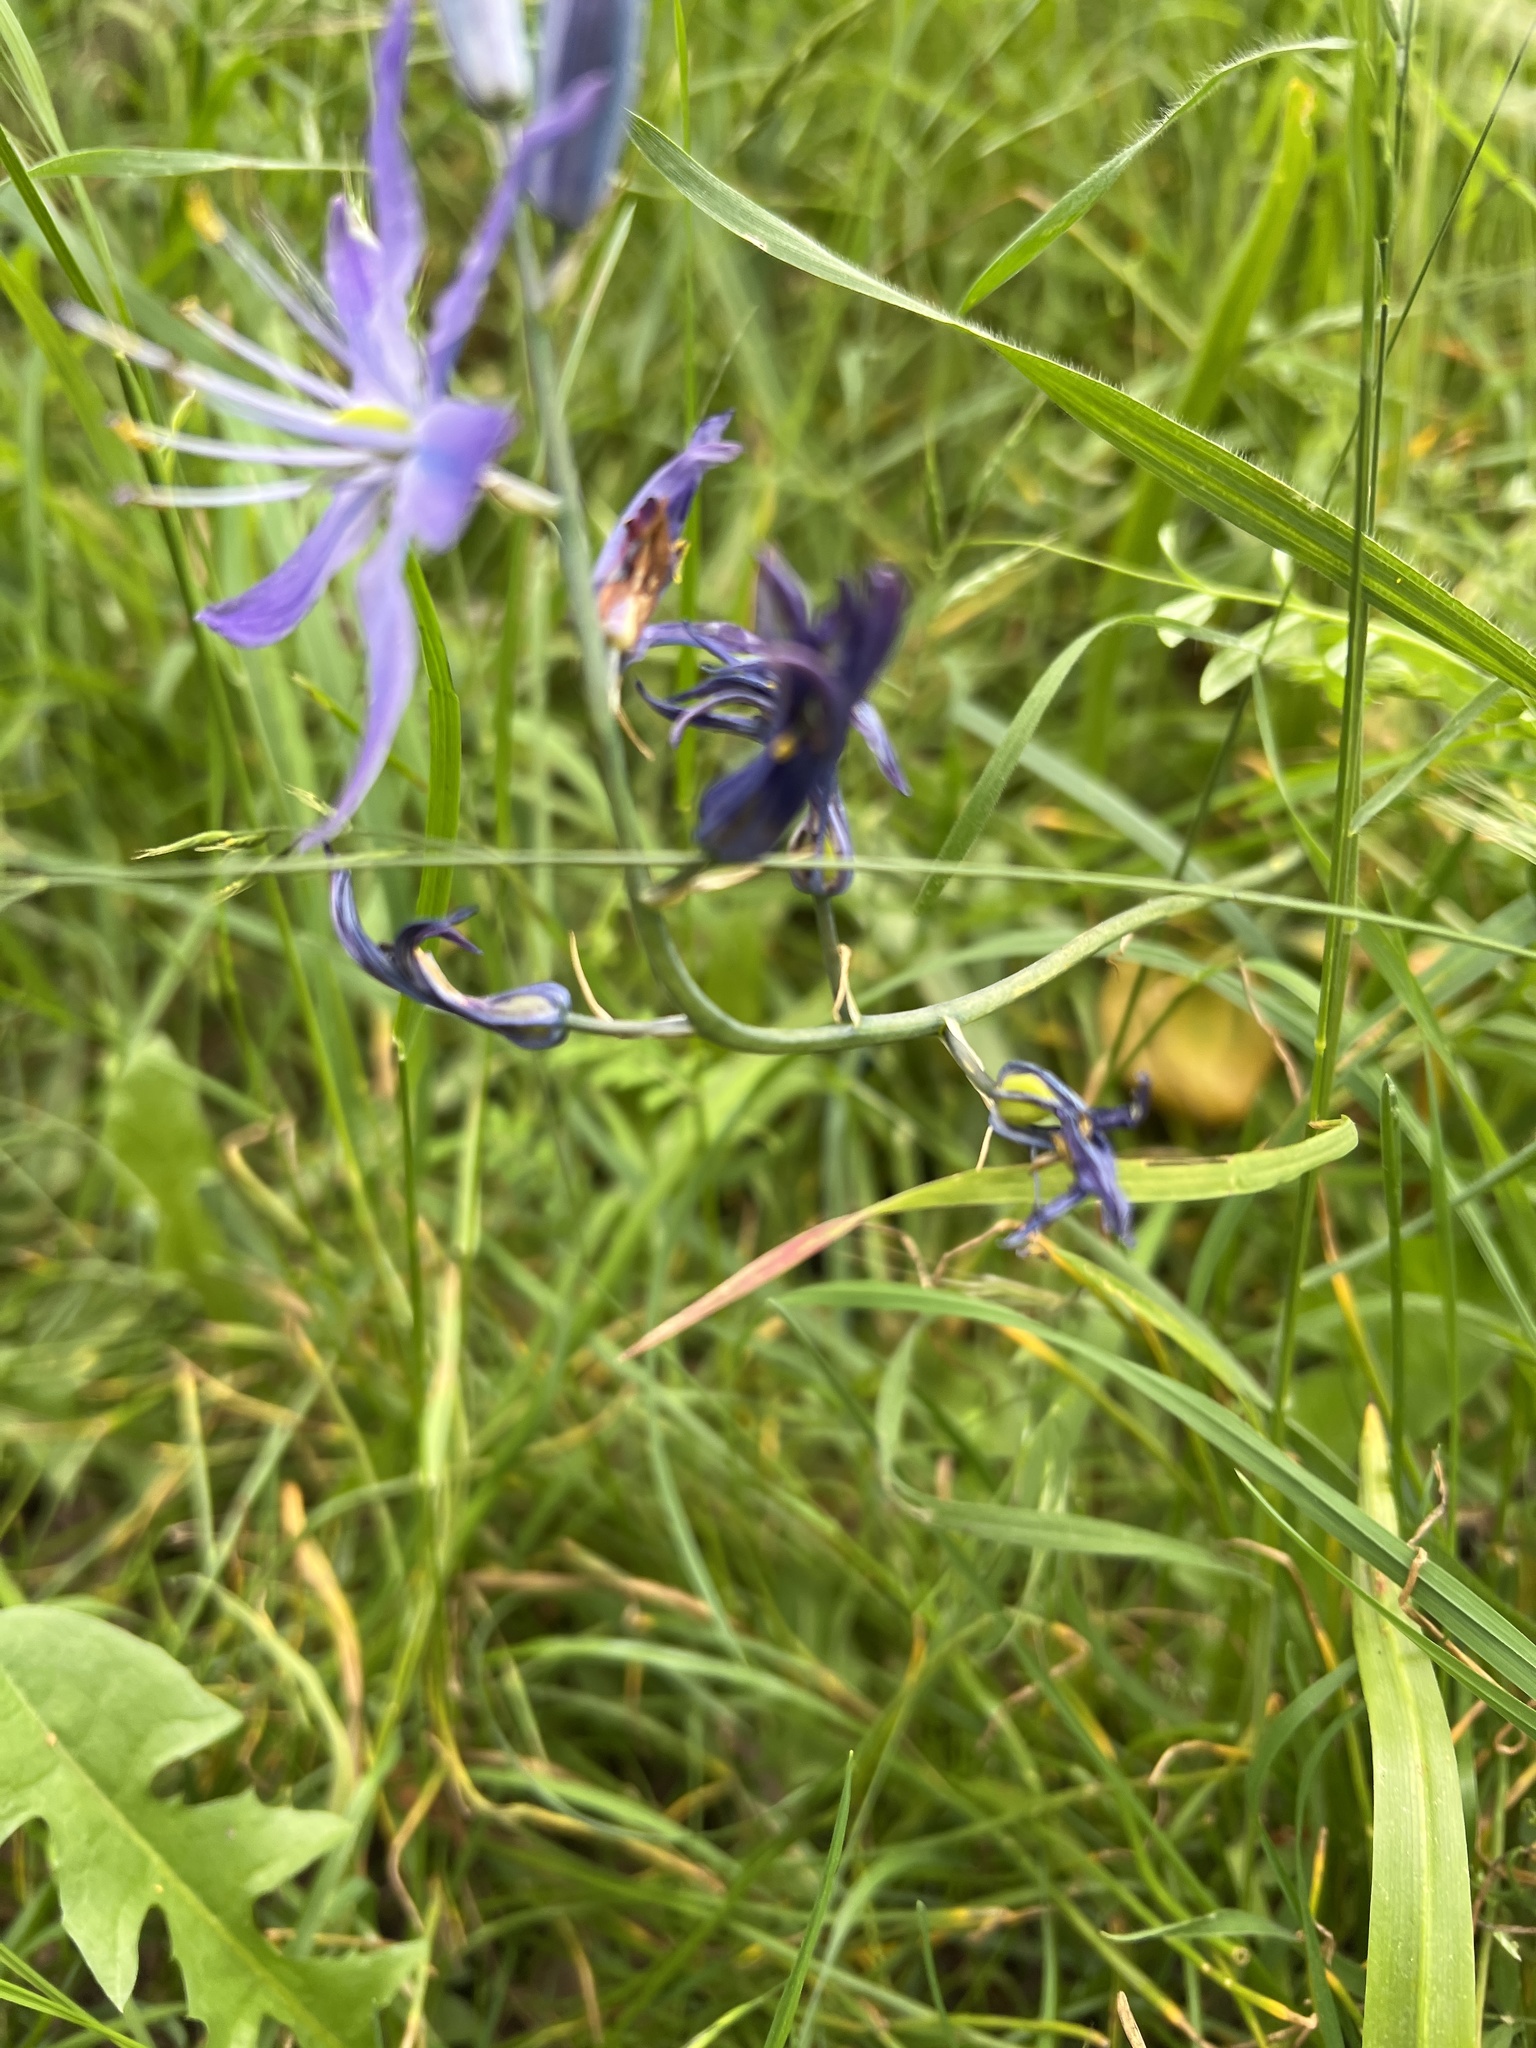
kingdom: Plantae
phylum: Tracheophyta
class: Liliopsida
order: Asparagales
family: Asparagaceae
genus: Camassia
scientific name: Camassia quamash
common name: Common camas
